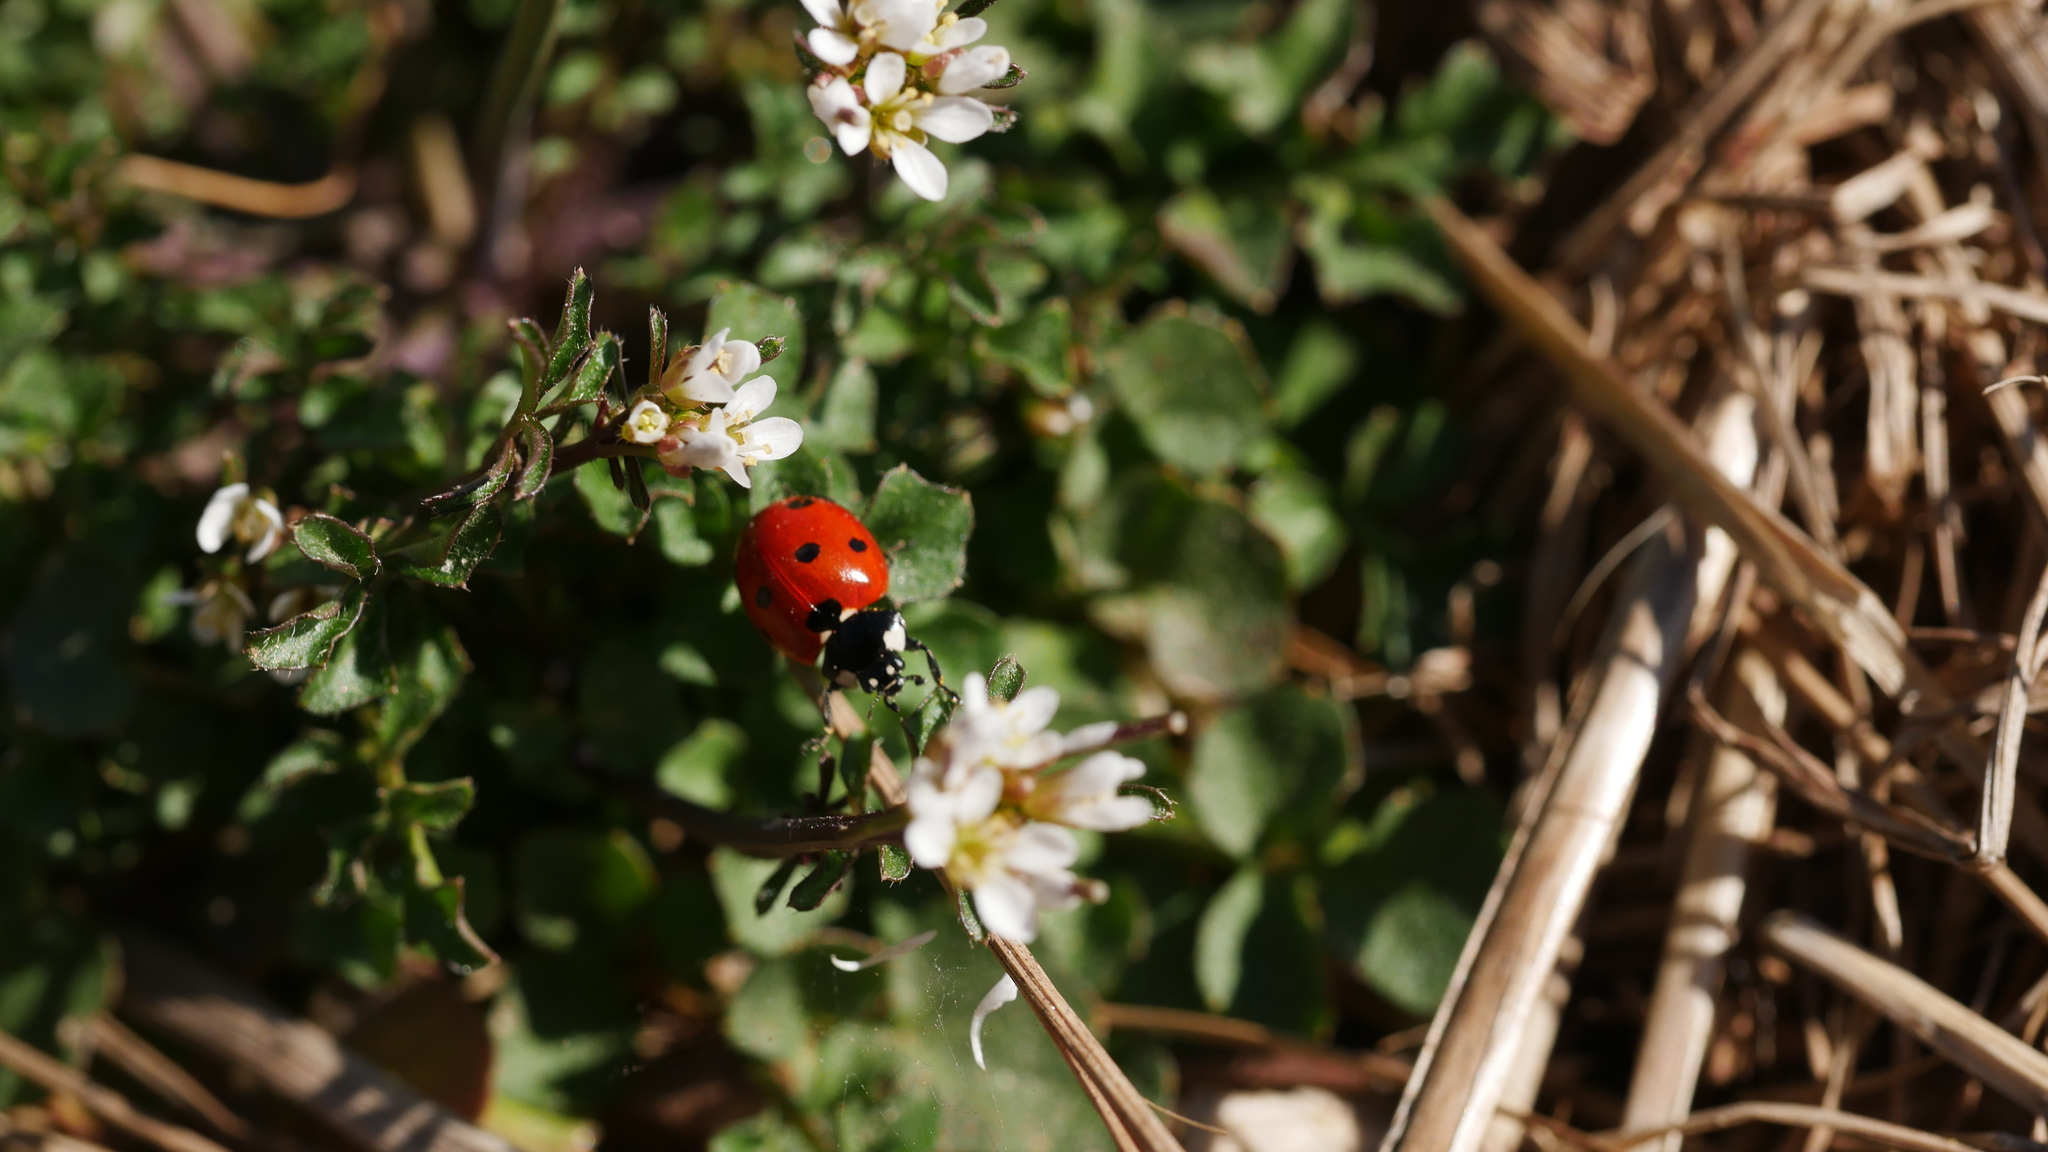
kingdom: Animalia
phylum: Arthropoda
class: Insecta
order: Coleoptera
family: Coccinellidae
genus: Coccinella
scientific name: Coccinella septempunctata
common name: Sevenspotted lady beetle
